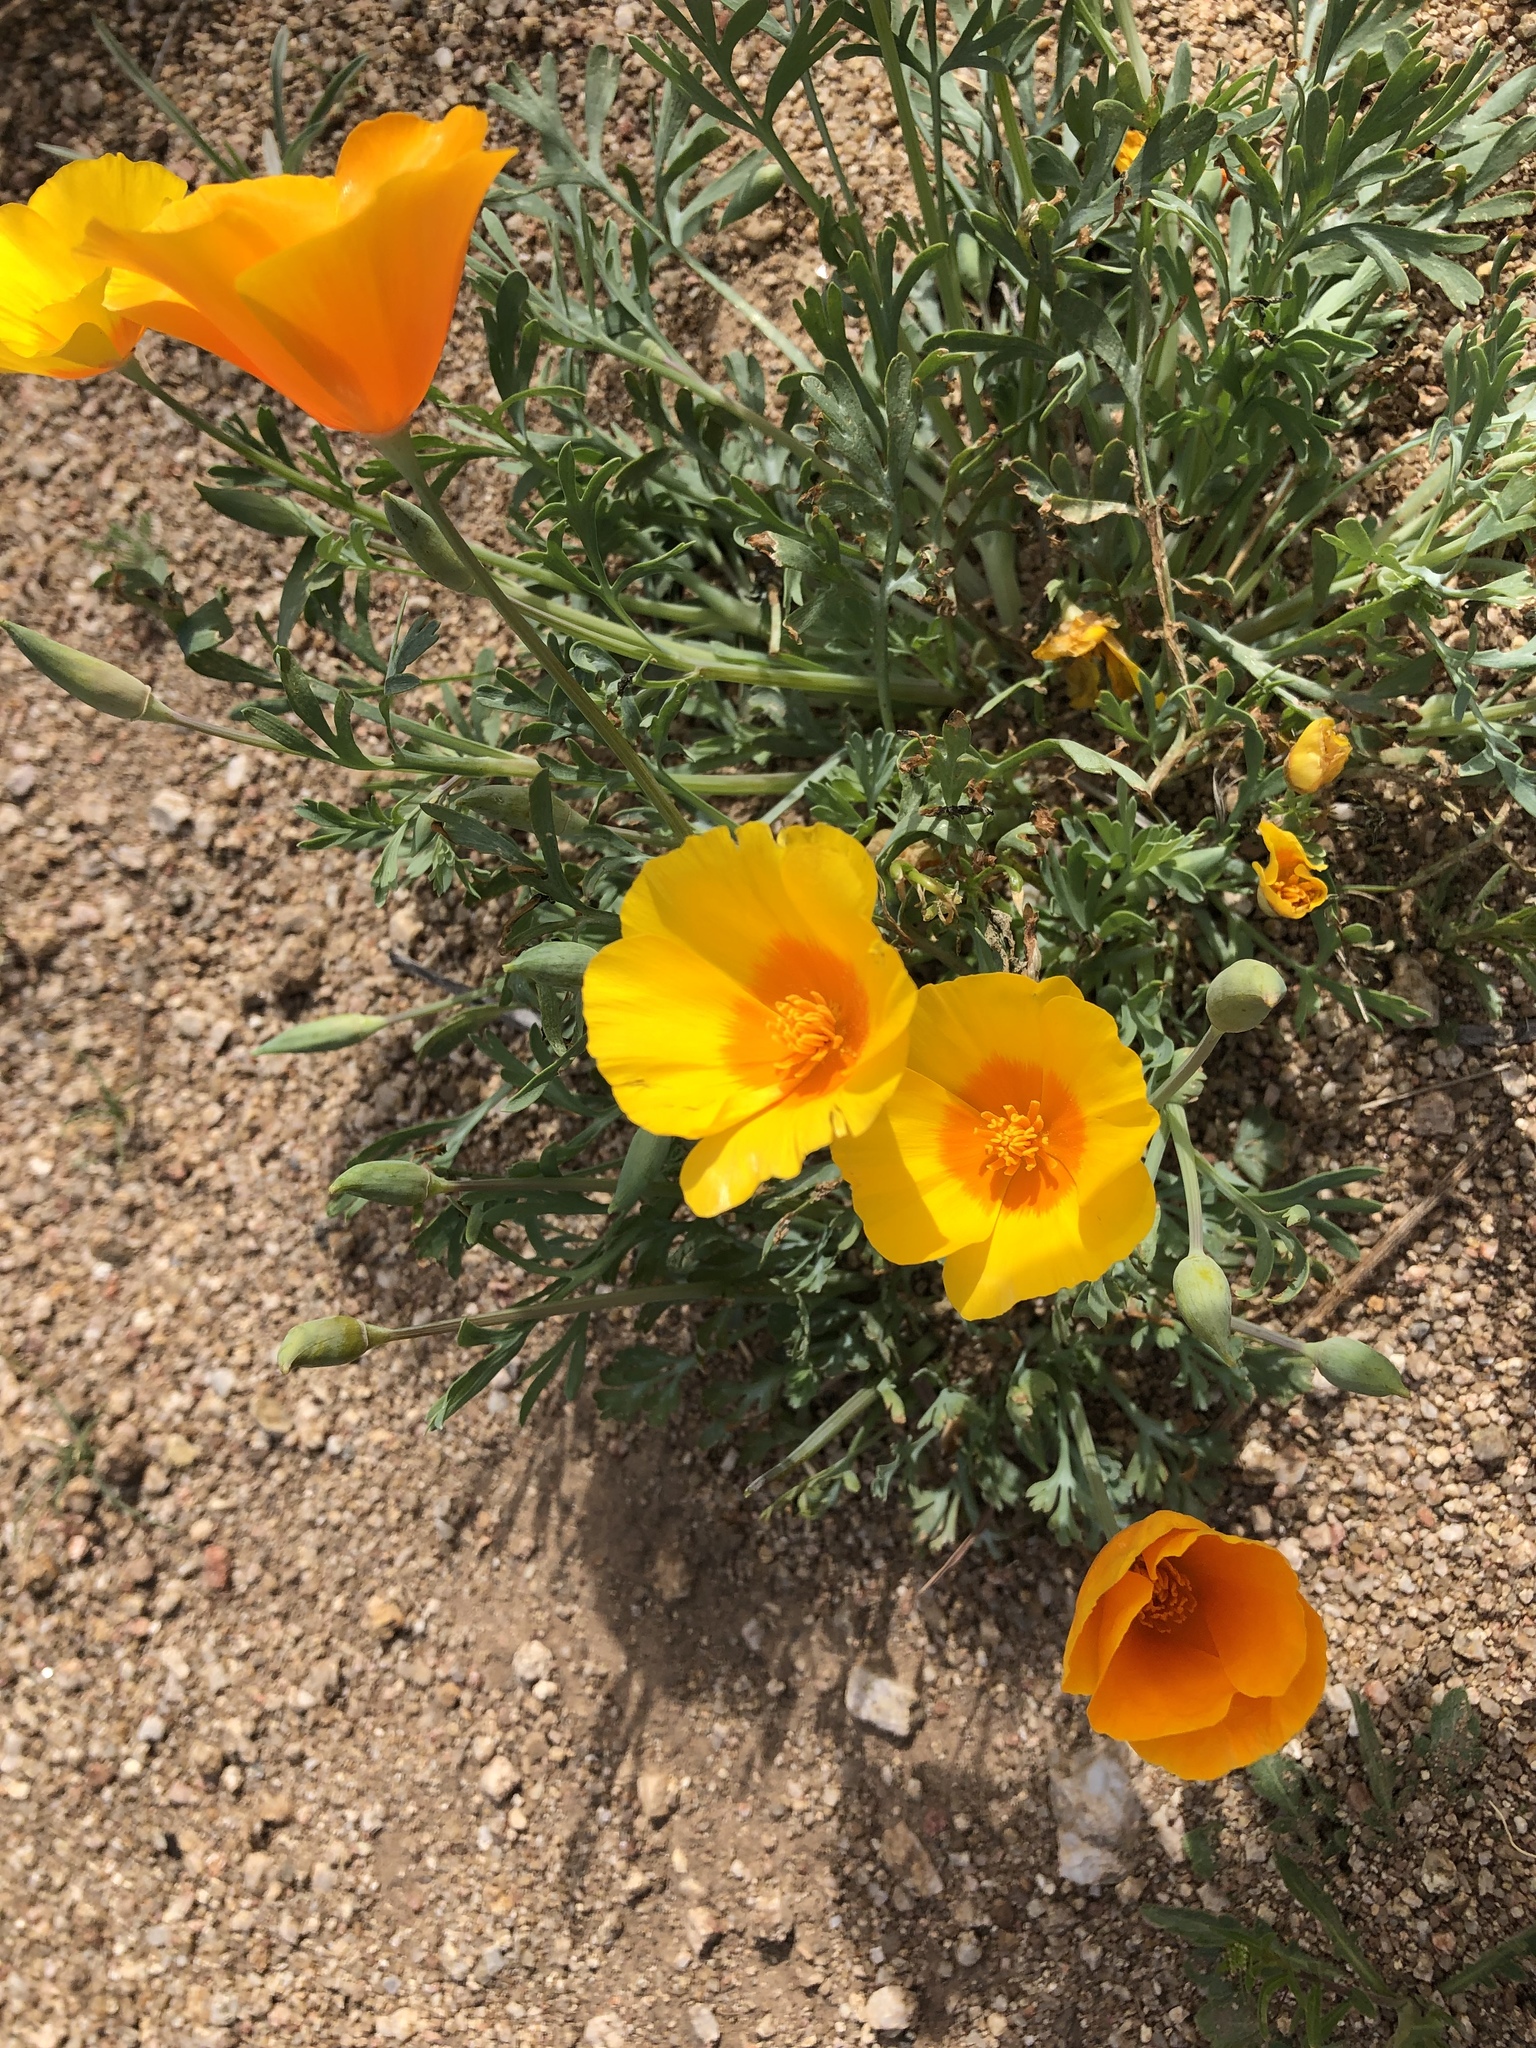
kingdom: Plantae
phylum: Tracheophyta
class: Magnoliopsida
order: Ranunculales
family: Papaveraceae
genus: Eschscholzia
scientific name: Eschscholzia californica
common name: California poppy
